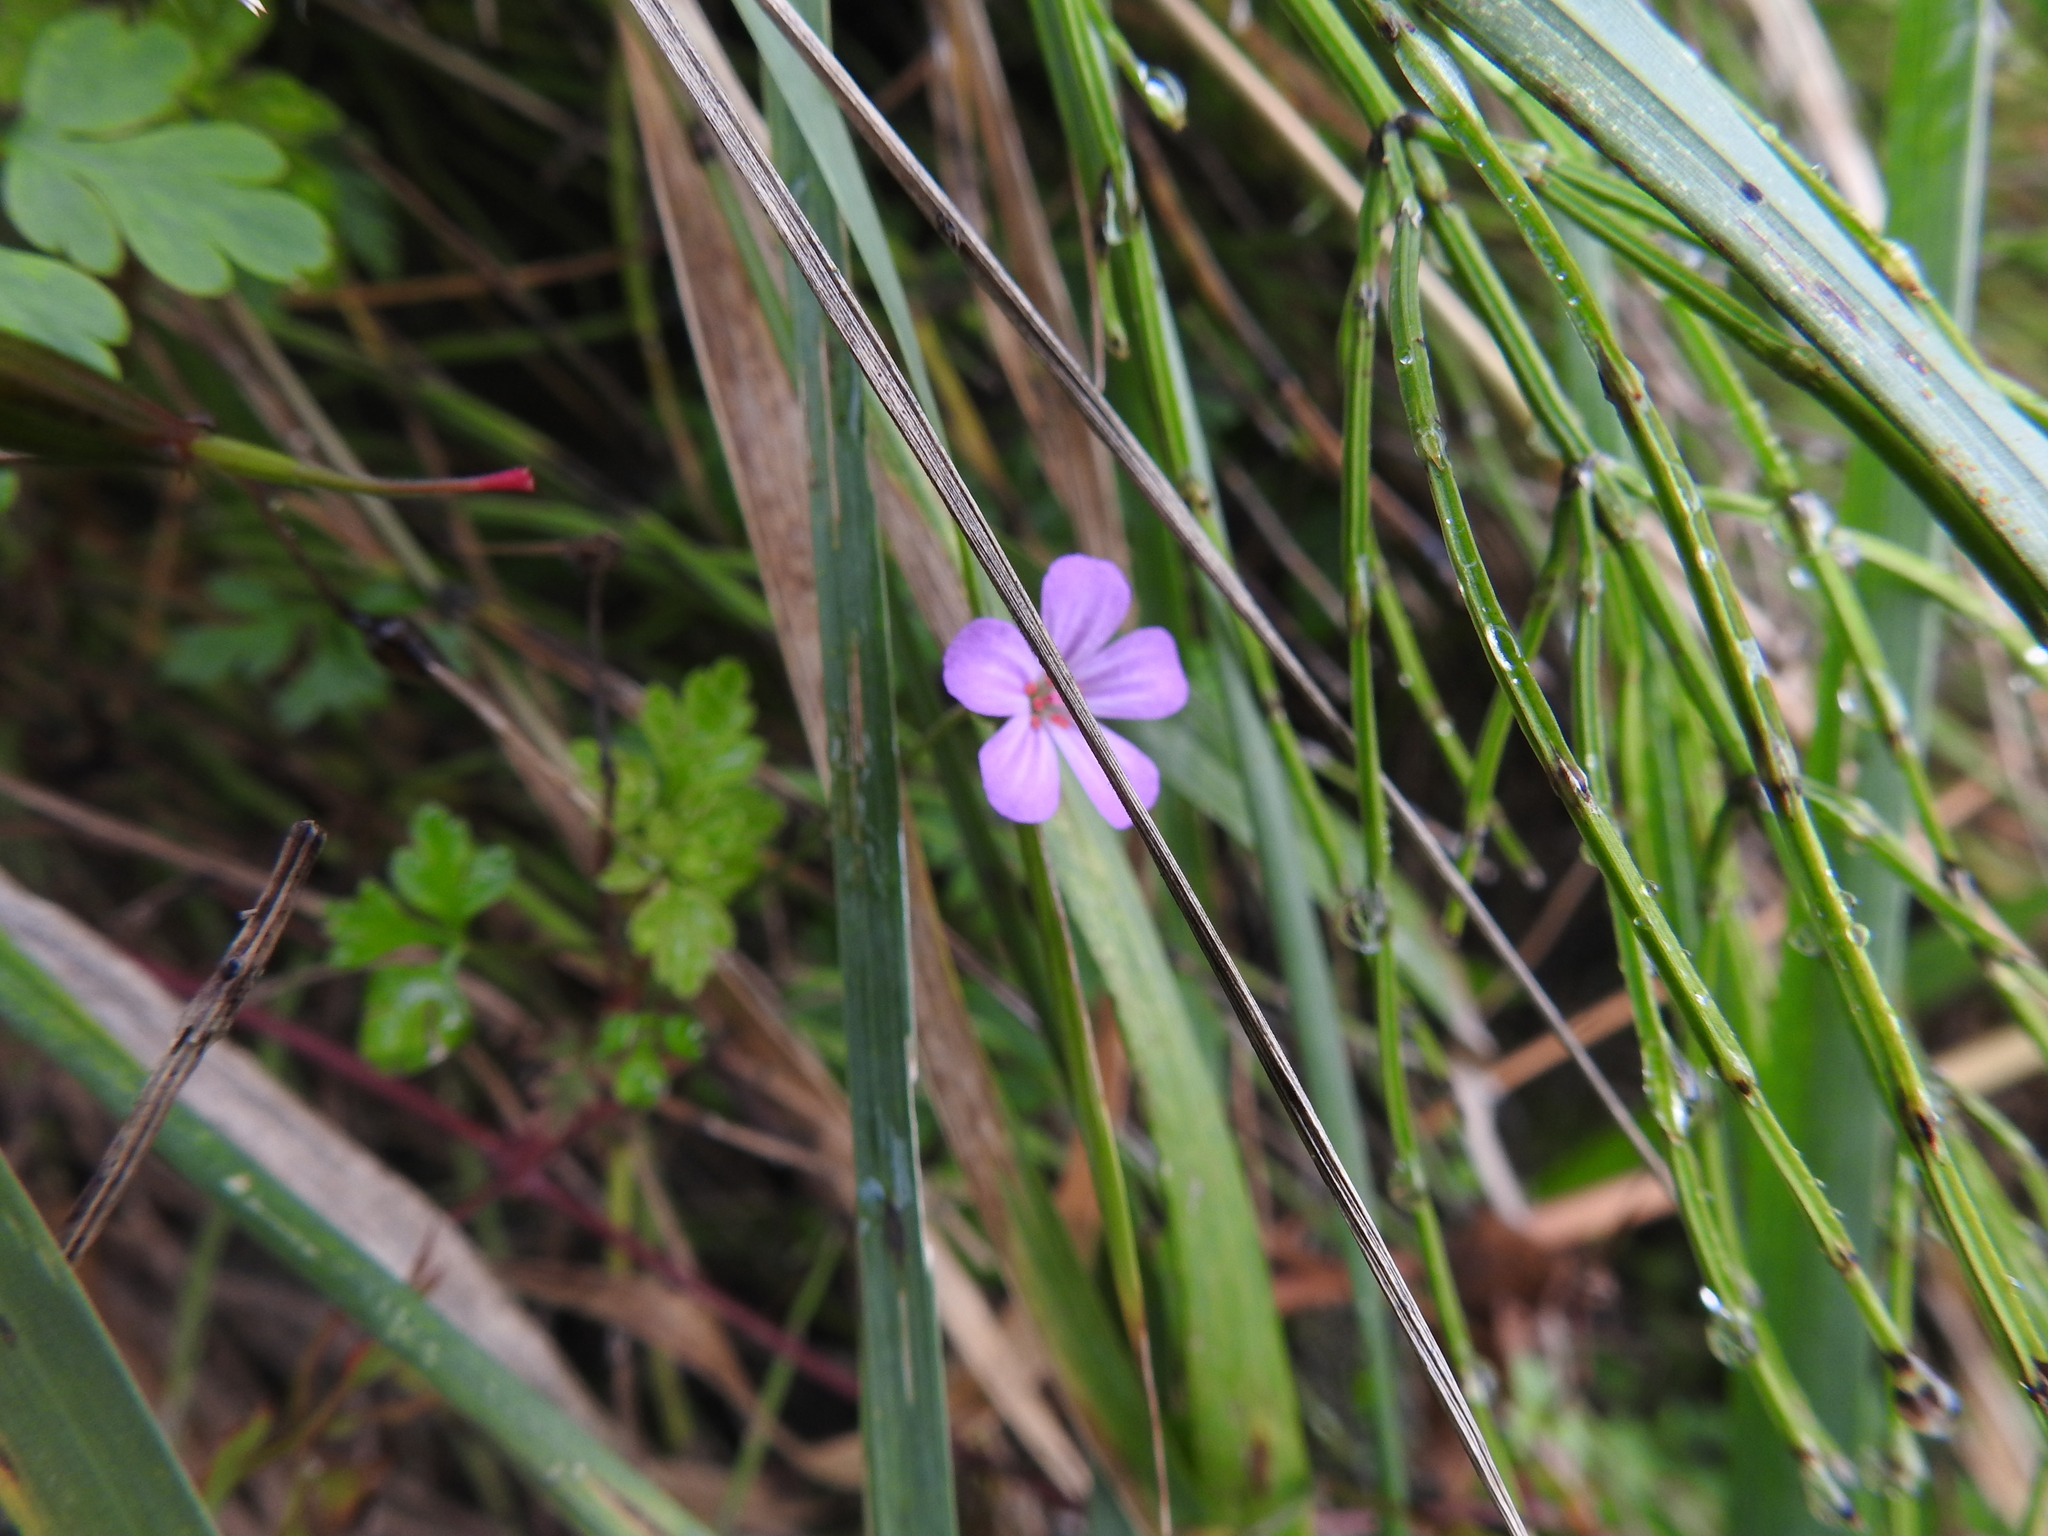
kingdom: Plantae
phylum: Tracheophyta
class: Magnoliopsida
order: Geraniales
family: Geraniaceae
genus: Geranium
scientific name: Geranium robertianum
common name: Herb-robert
